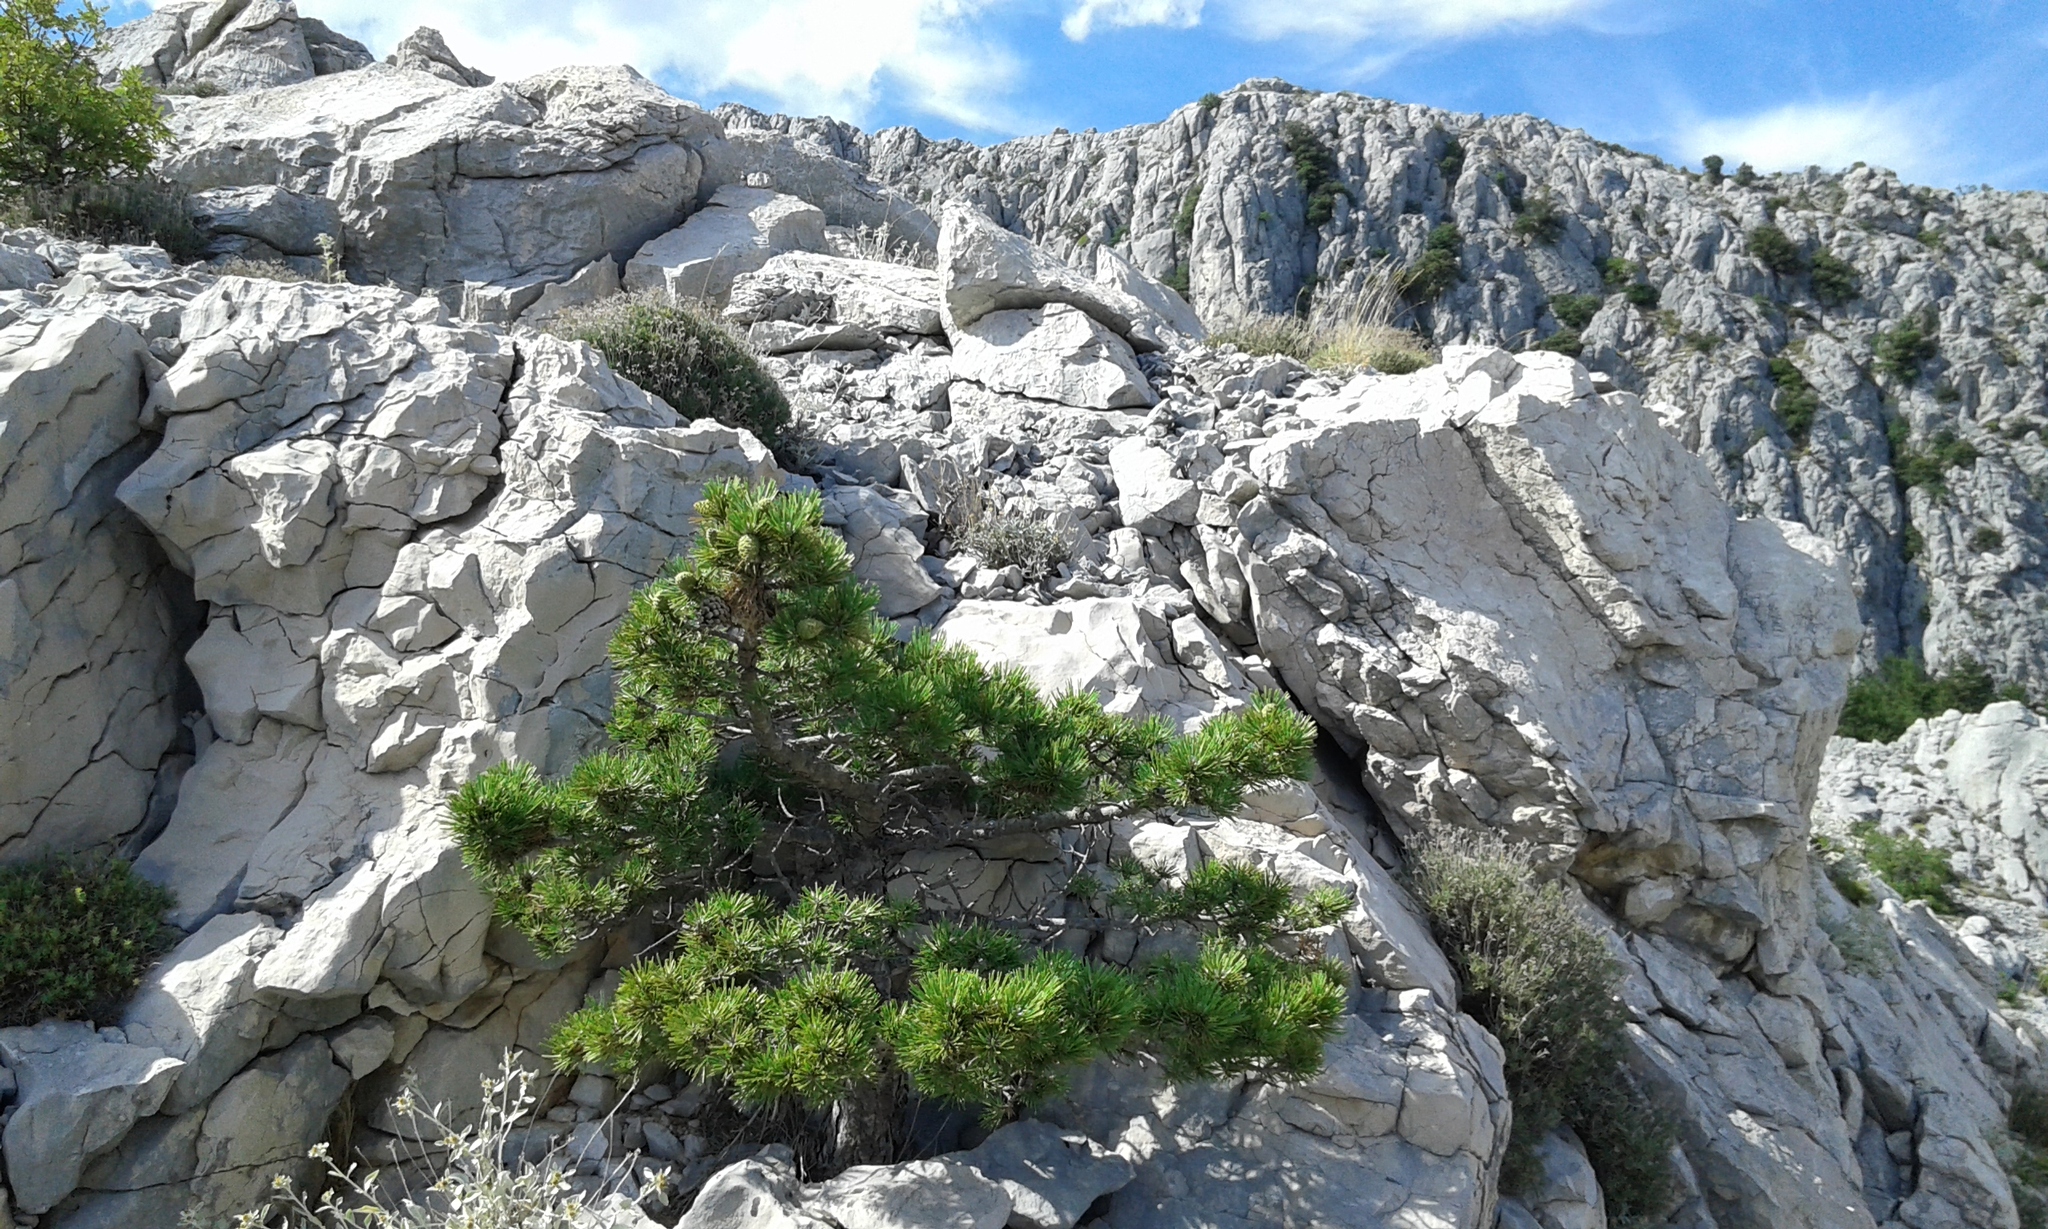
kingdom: Plantae
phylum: Tracheophyta
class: Pinopsida
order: Pinales
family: Pinaceae
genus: Pinus
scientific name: Pinus nigra
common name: Austrian pine
